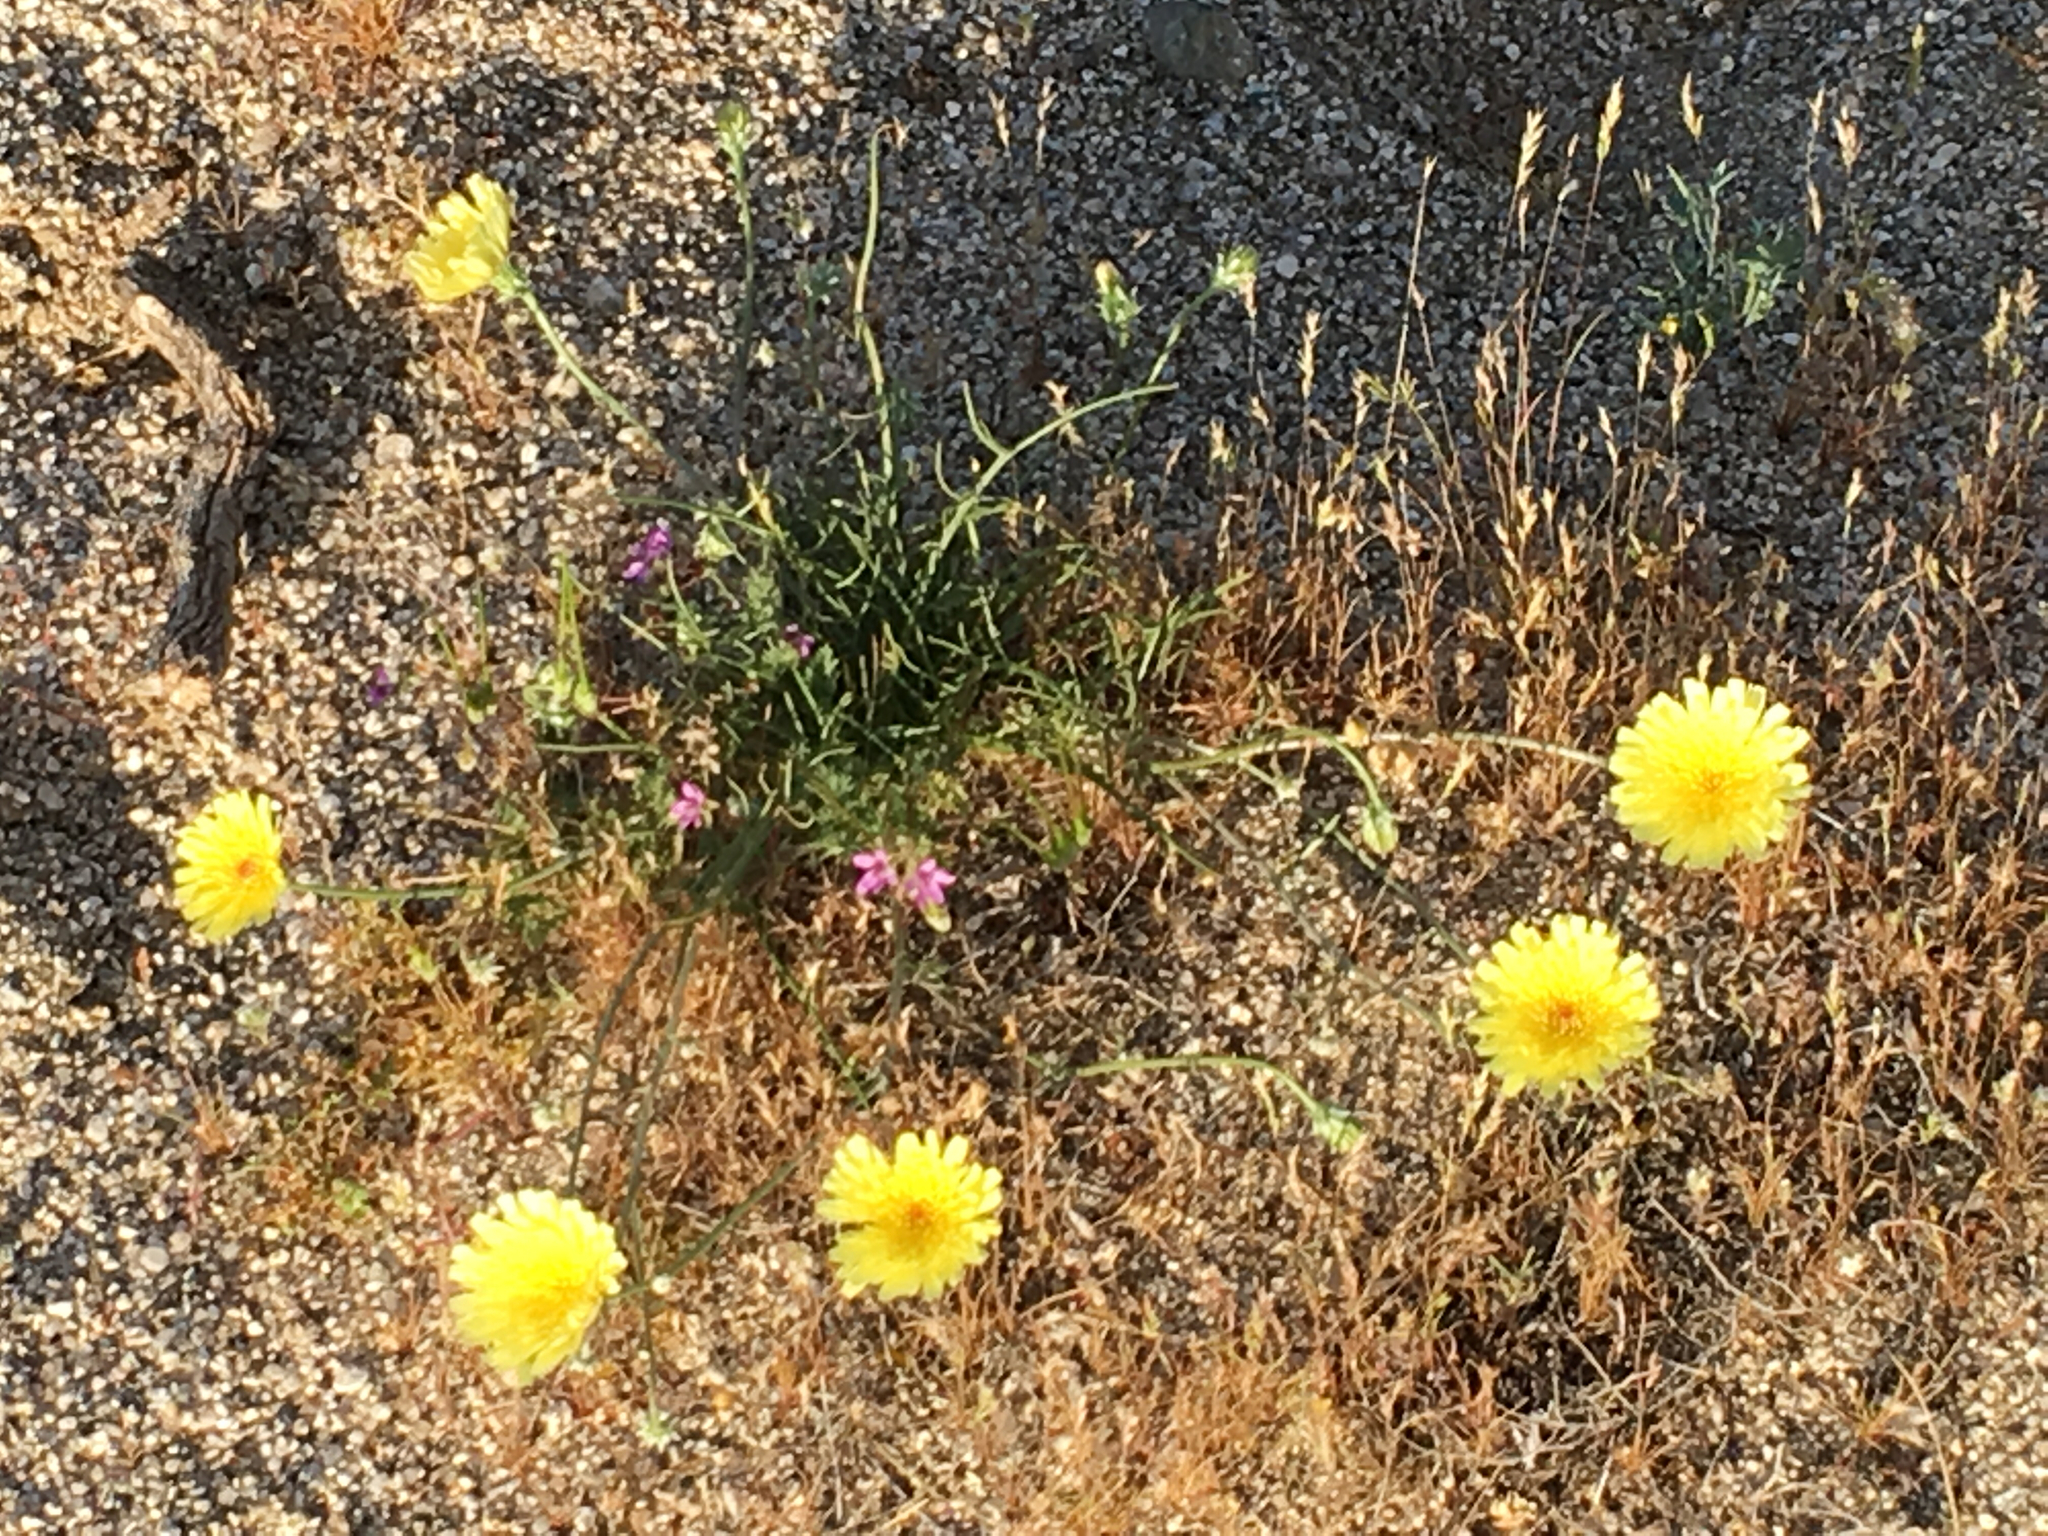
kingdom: Plantae
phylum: Tracheophyta
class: Magnoliopsida
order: Asterales
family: Asteraceae
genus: Malacothrix
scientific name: Malacothrix glabrata
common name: Smooth desert-dandelion
